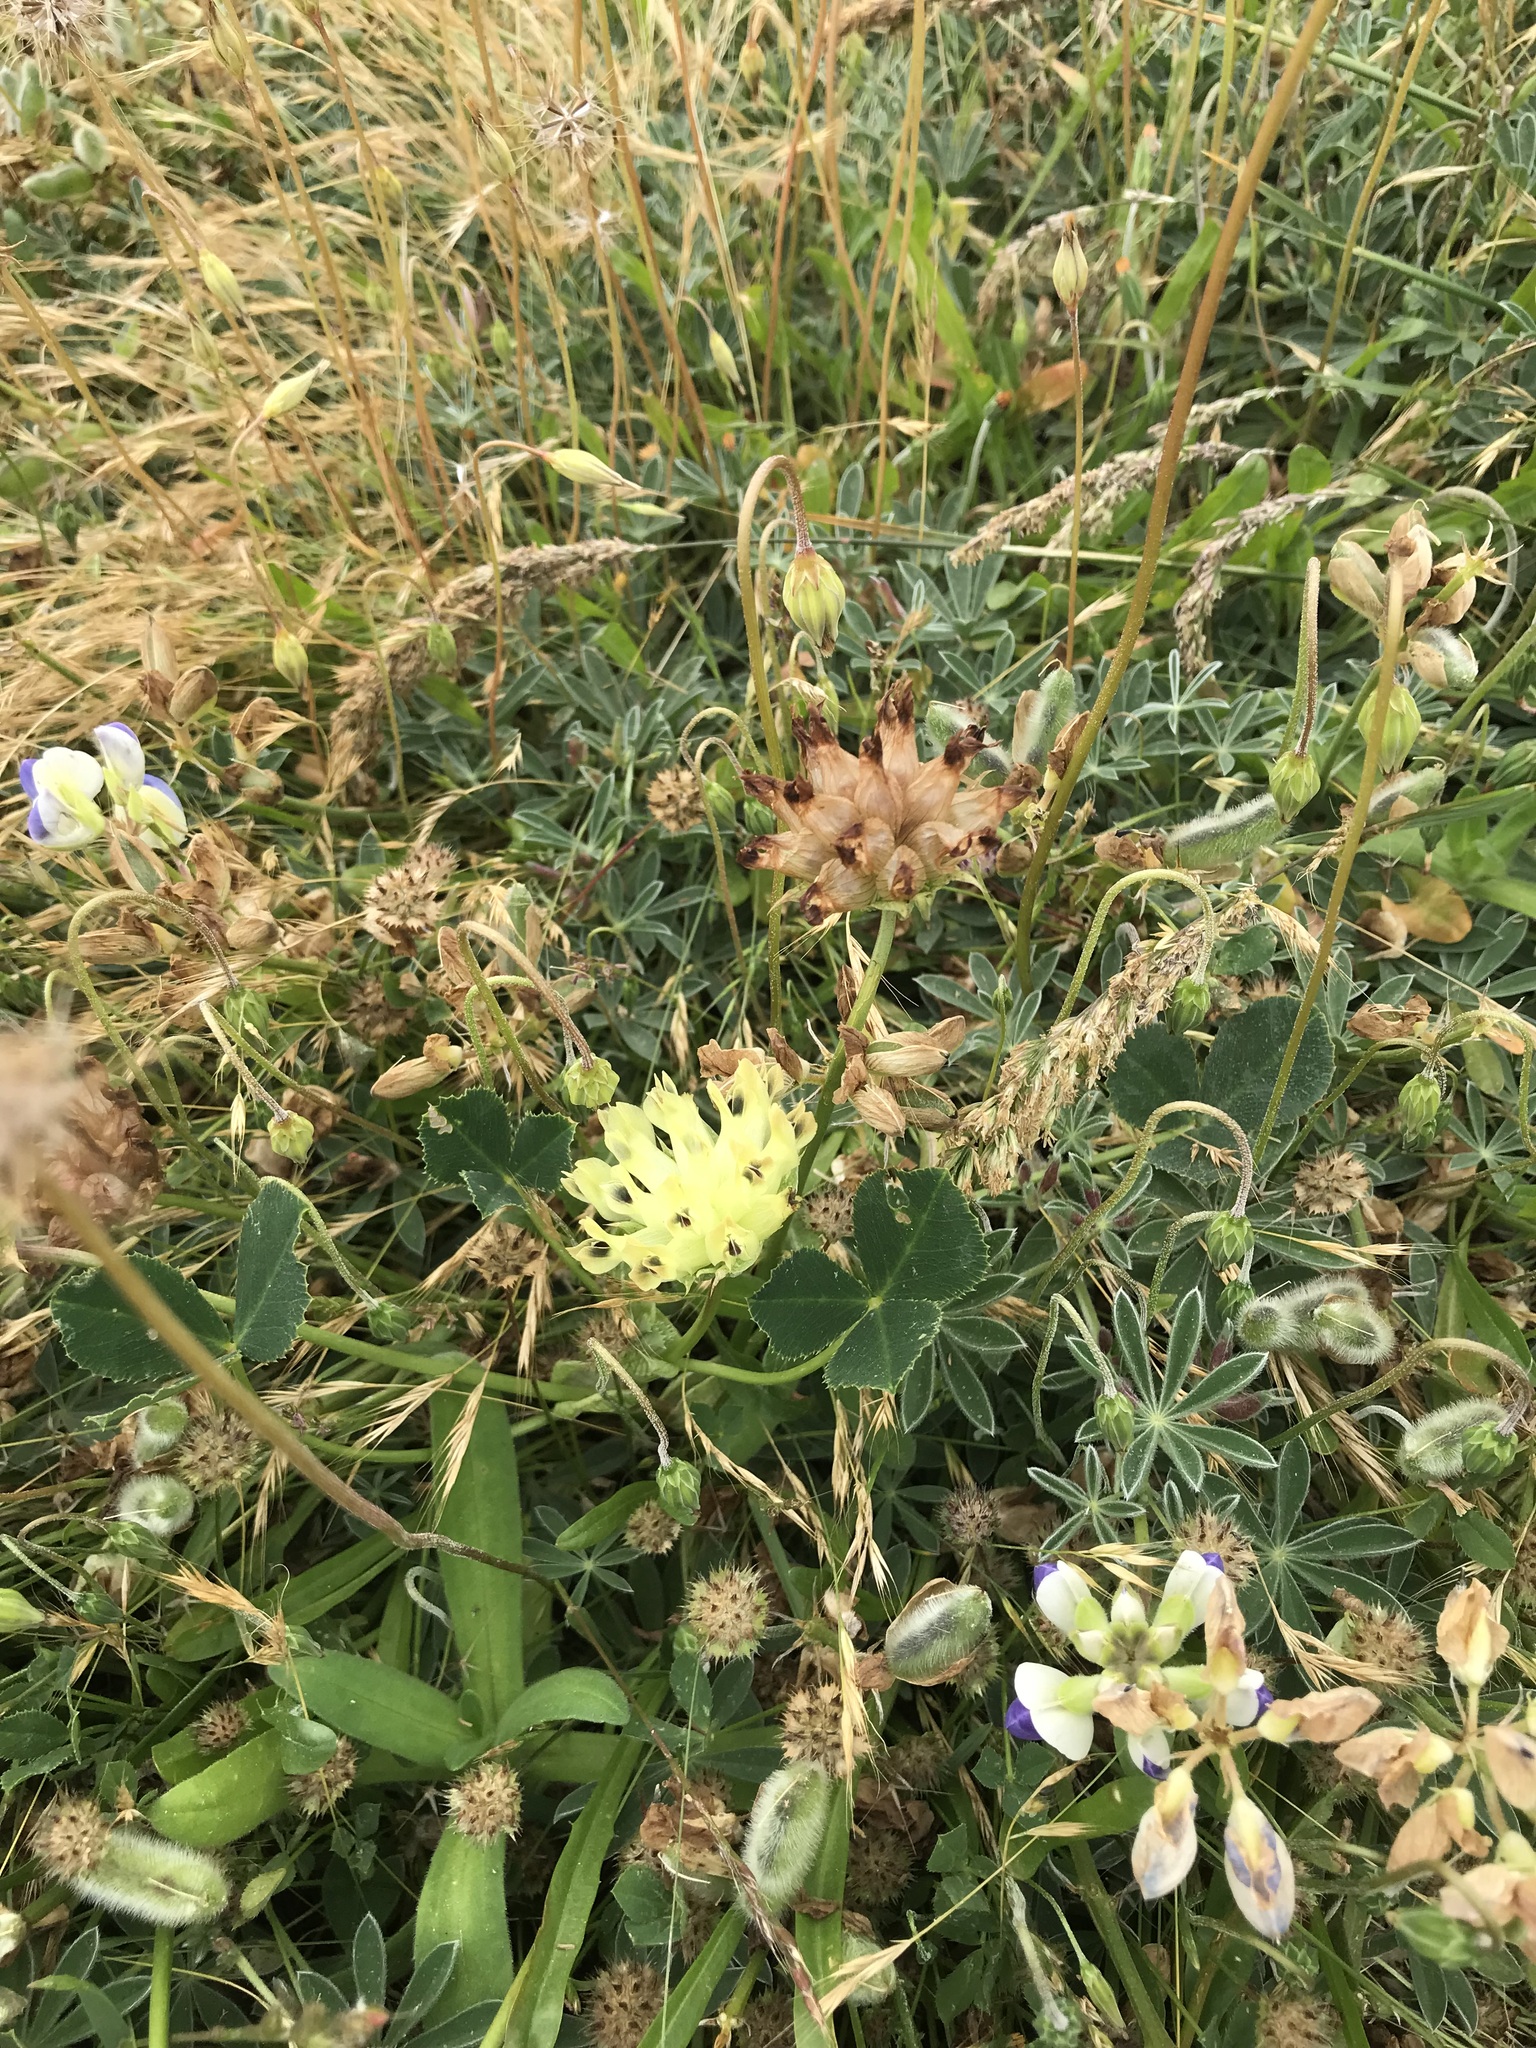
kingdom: Plantae
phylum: Tracheophyta
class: Magnoliopsida
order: Fabales
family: Fabaceae
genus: Trifolium
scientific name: Trifolium fucatum
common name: Puff clover
